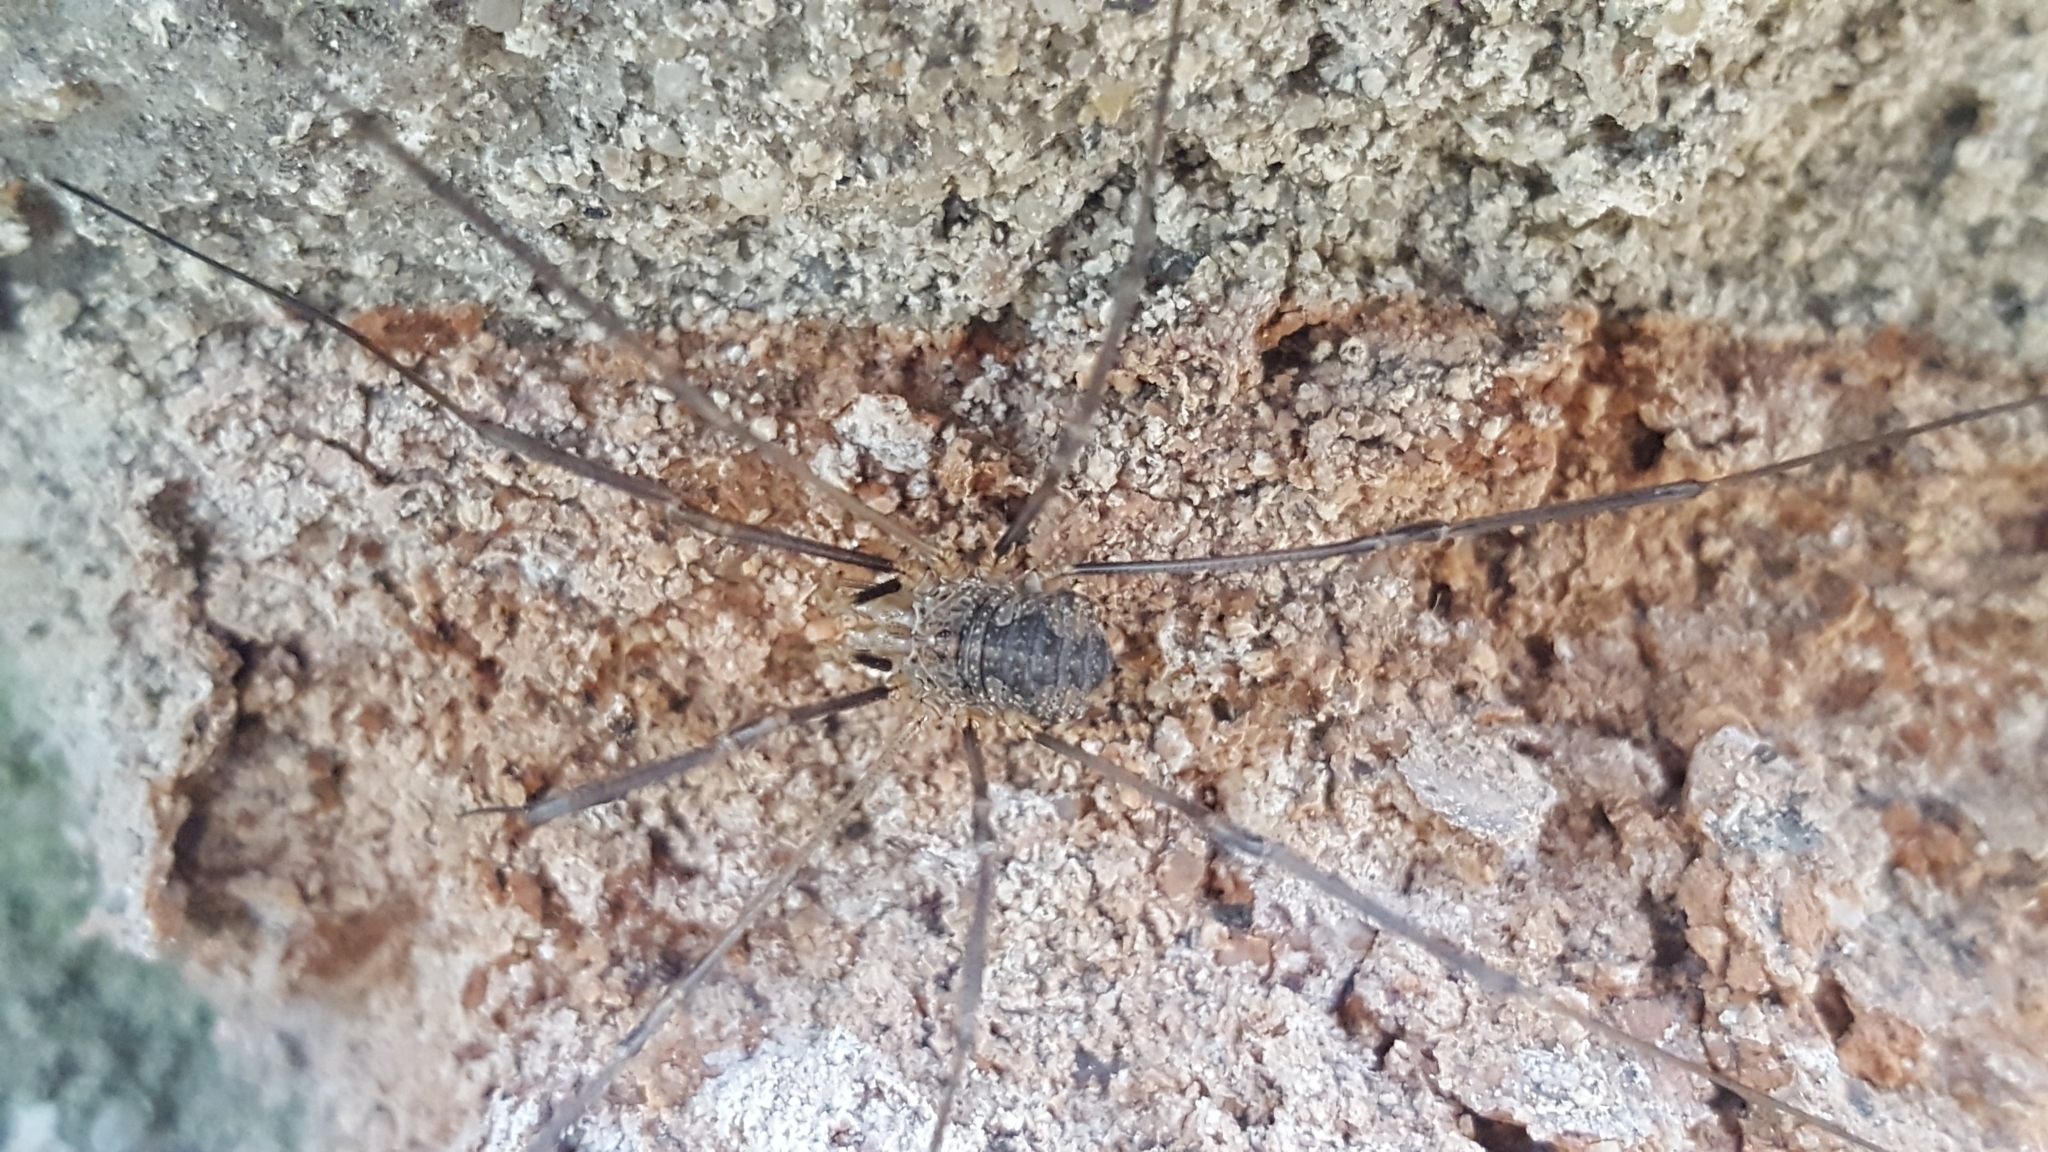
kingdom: Animalia
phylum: Arthropoda
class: Arachnida
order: Opiliones
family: Phalangiidae
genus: Phalangium
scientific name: Phalangium opilio
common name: Daddy longleg
